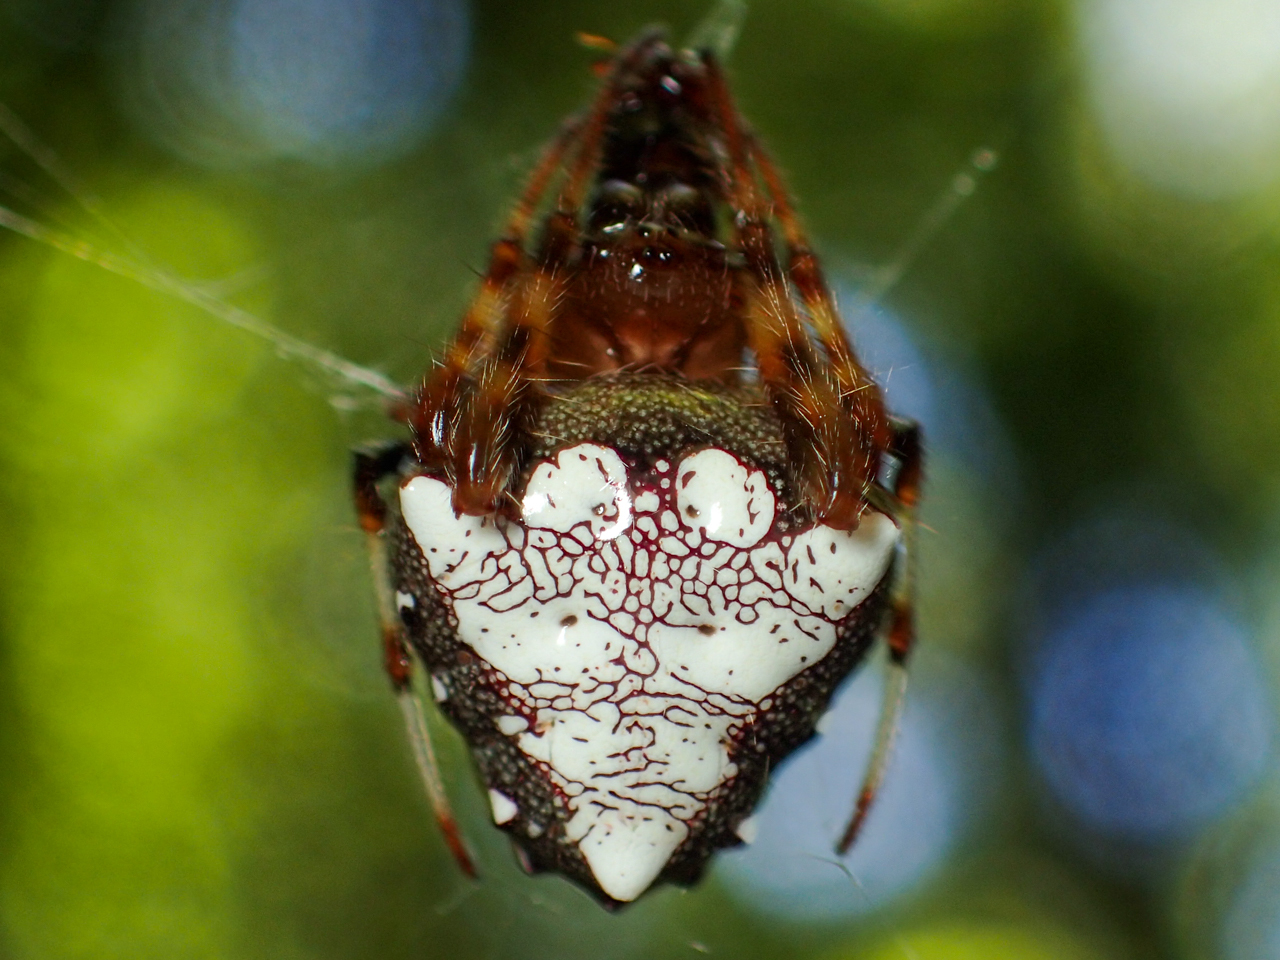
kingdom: Animalia
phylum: Arthropoda
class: Arachnida
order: Araneae
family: Araneidae
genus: Verrucosa
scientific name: Verrucosa arenata
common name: Orb weavers
